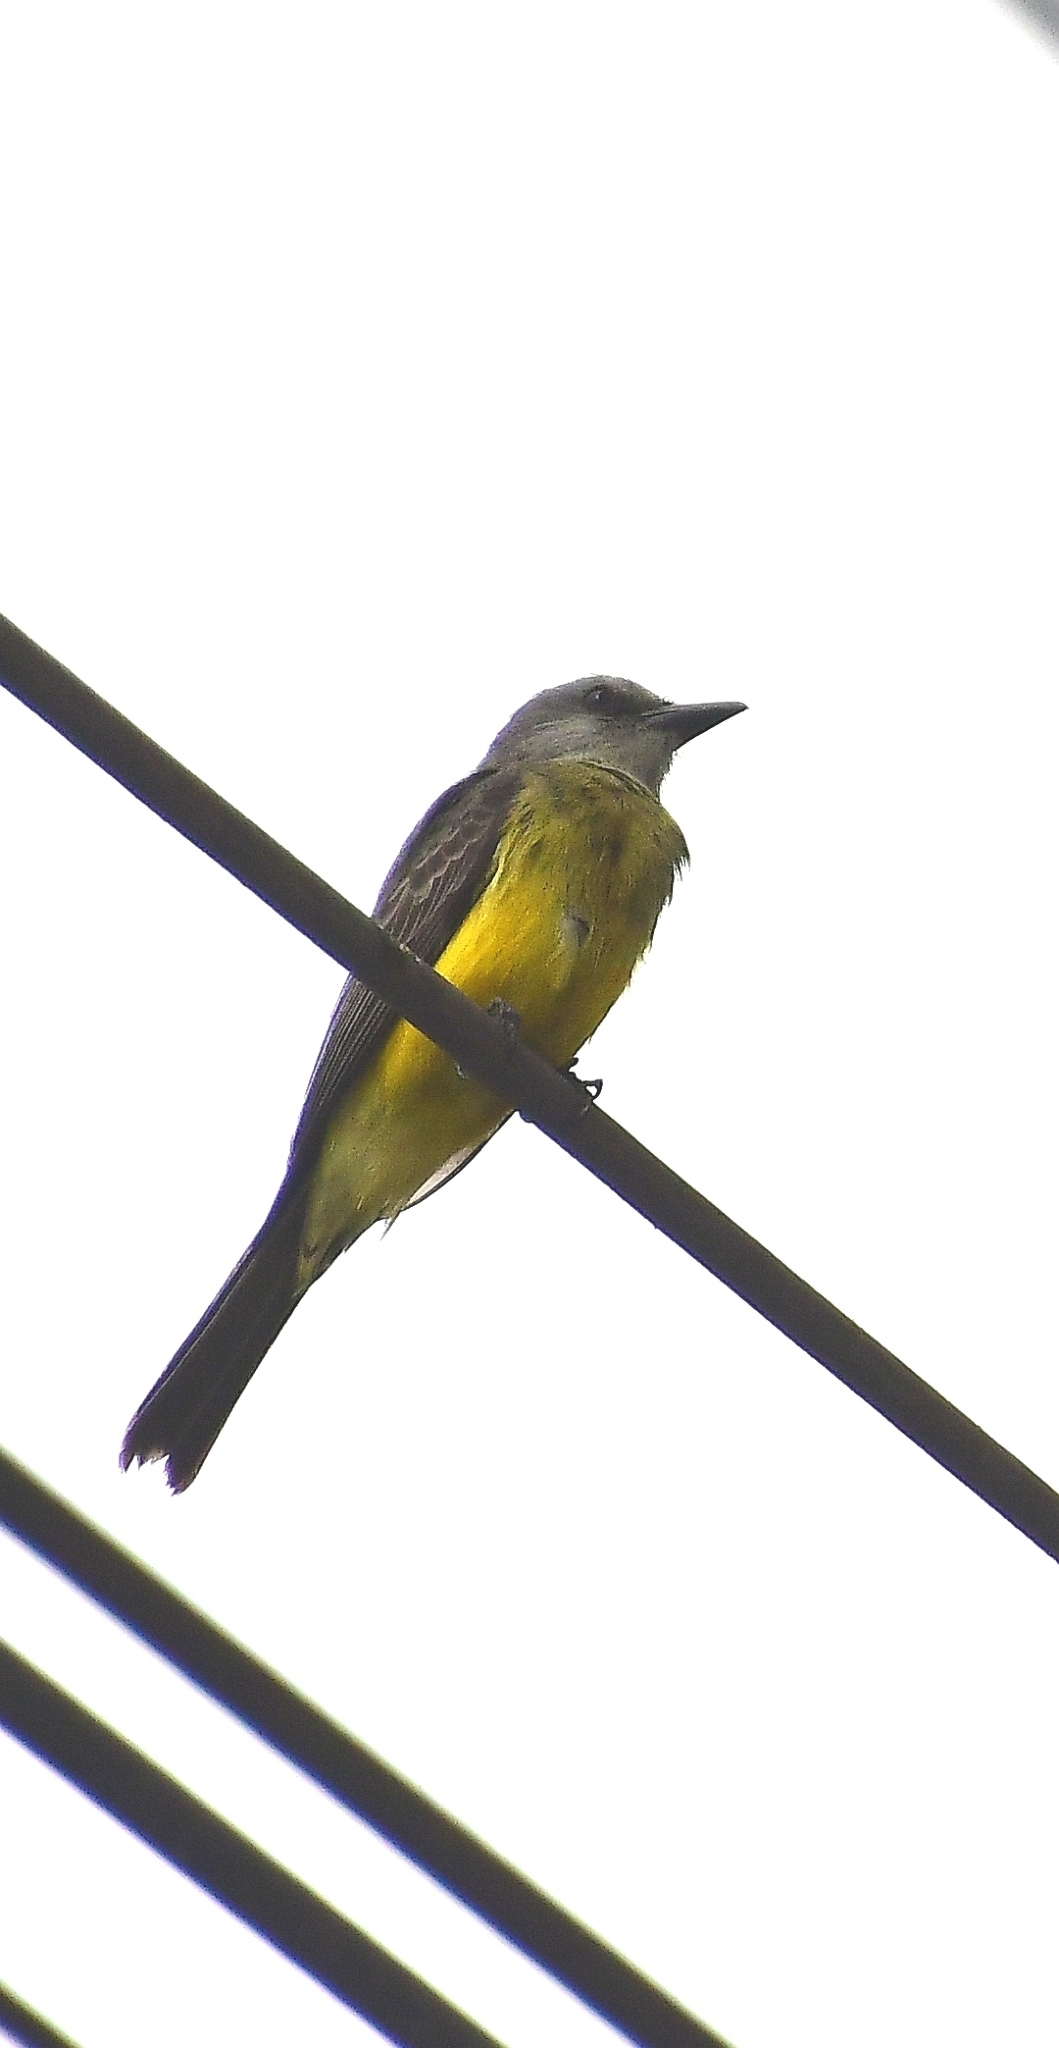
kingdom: Animalia
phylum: Chordata
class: Aves
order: Passeriformes
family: Tyrannidae
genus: Tyrannus
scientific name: Tyrannus melancholicus
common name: Tropical kingbird
